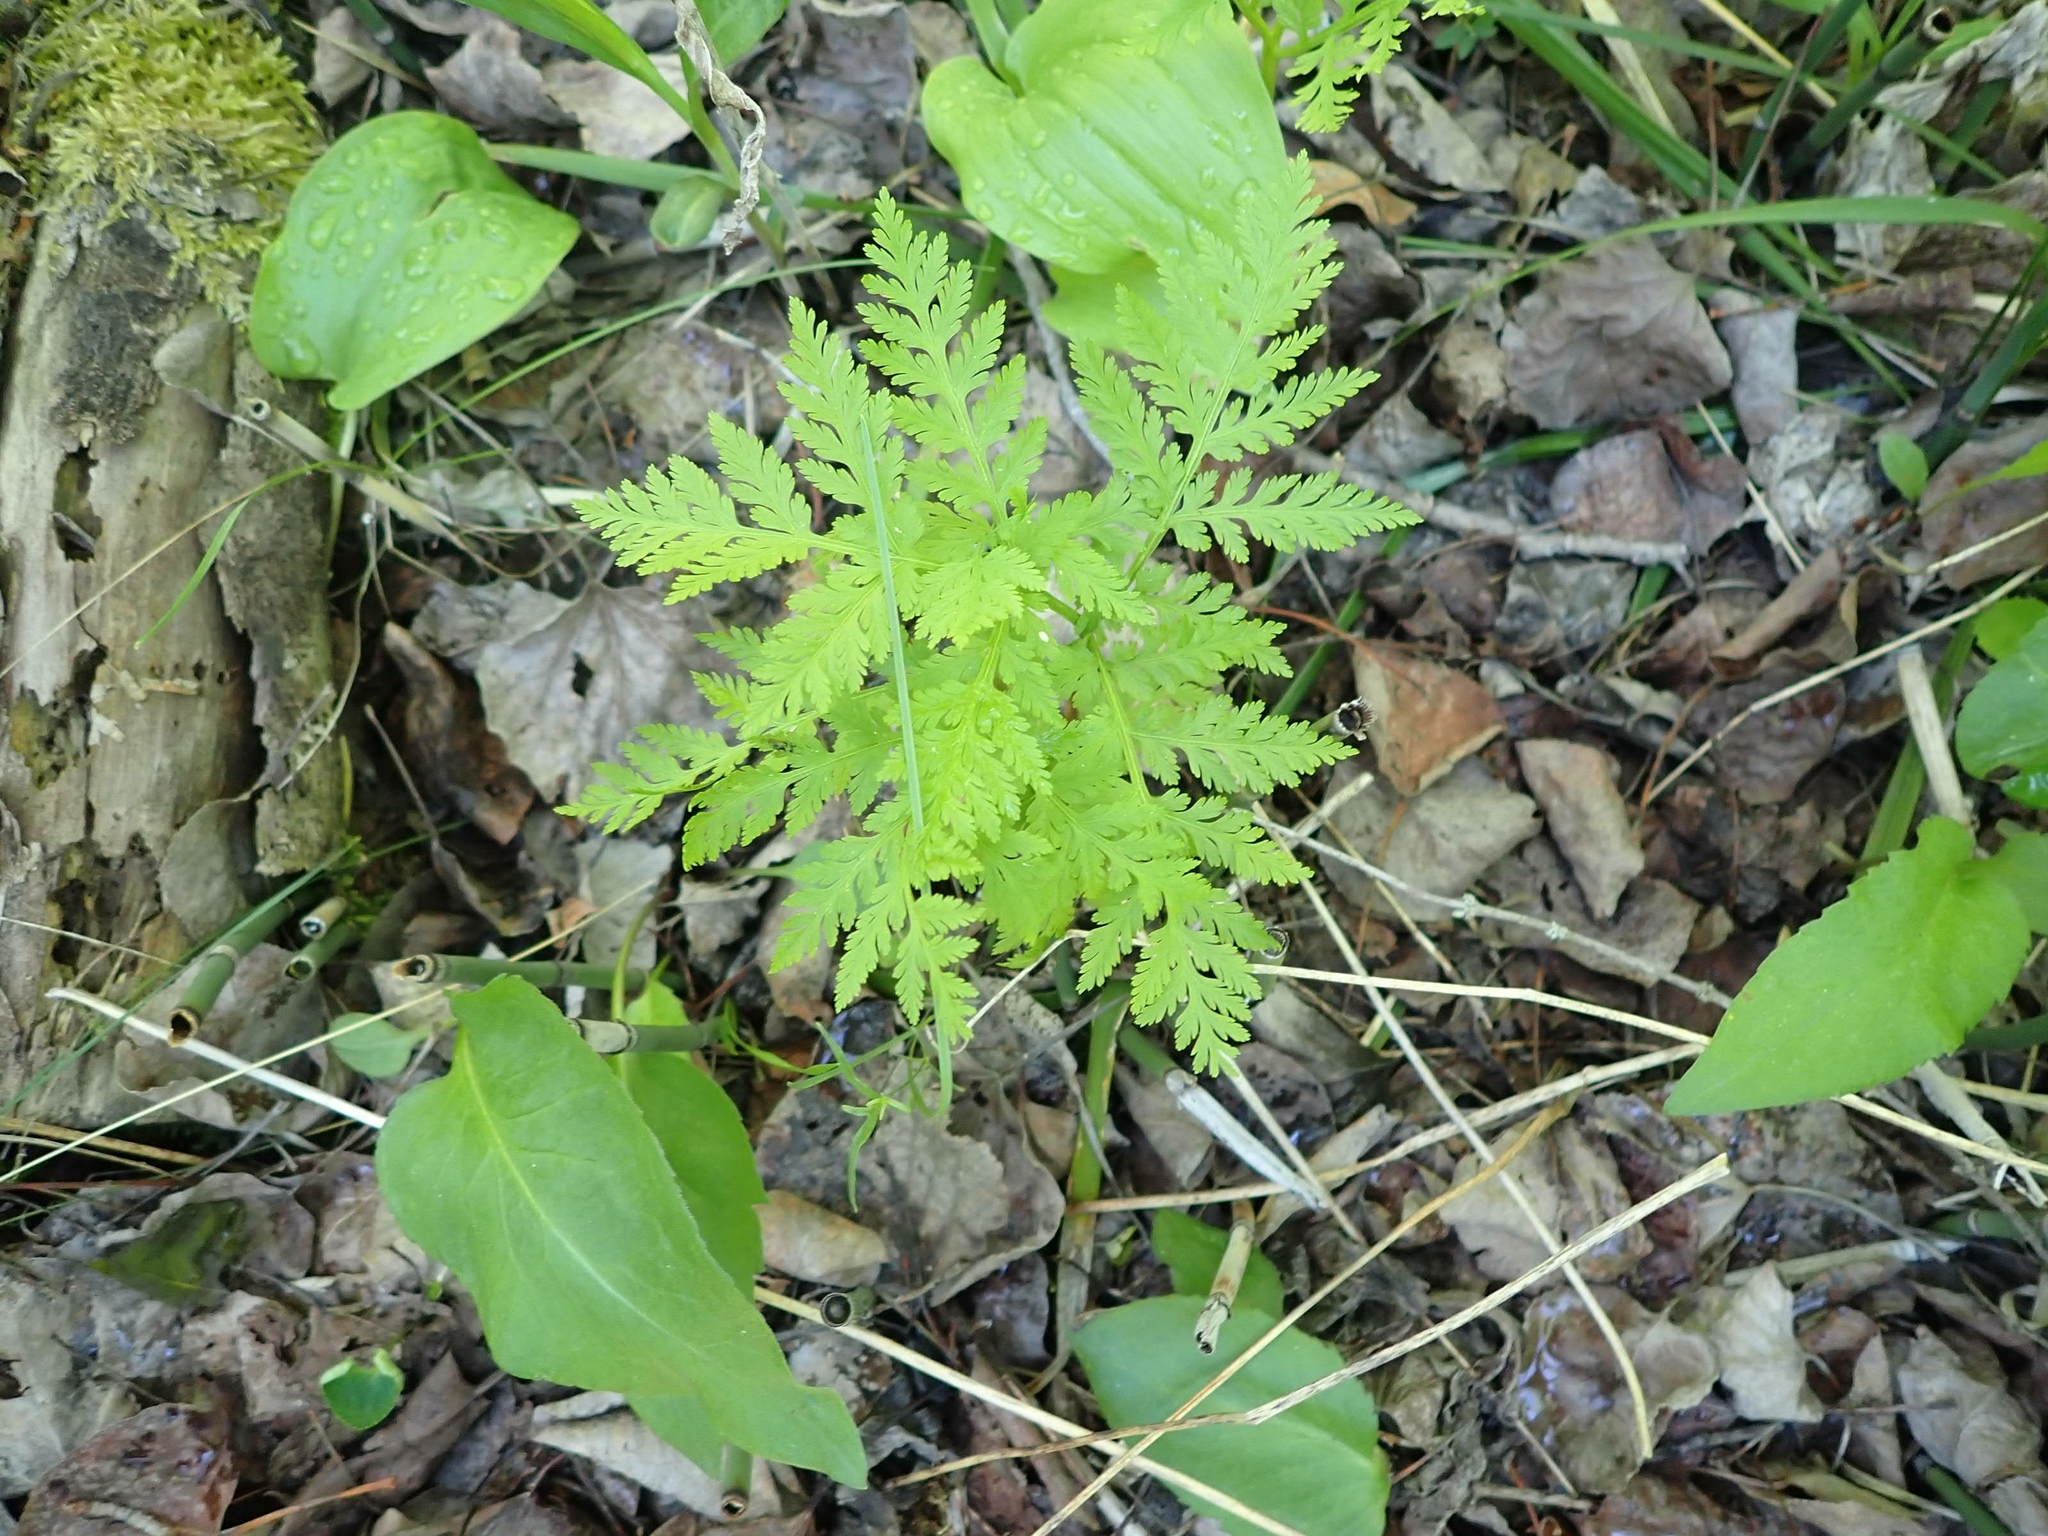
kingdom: Plantae
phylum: Tracheophyta
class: Polypodiopsida
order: Ophioglossales
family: Ophioglossaceae
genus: Botrypus
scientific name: Botrypus virginianus
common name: Common grapefern
